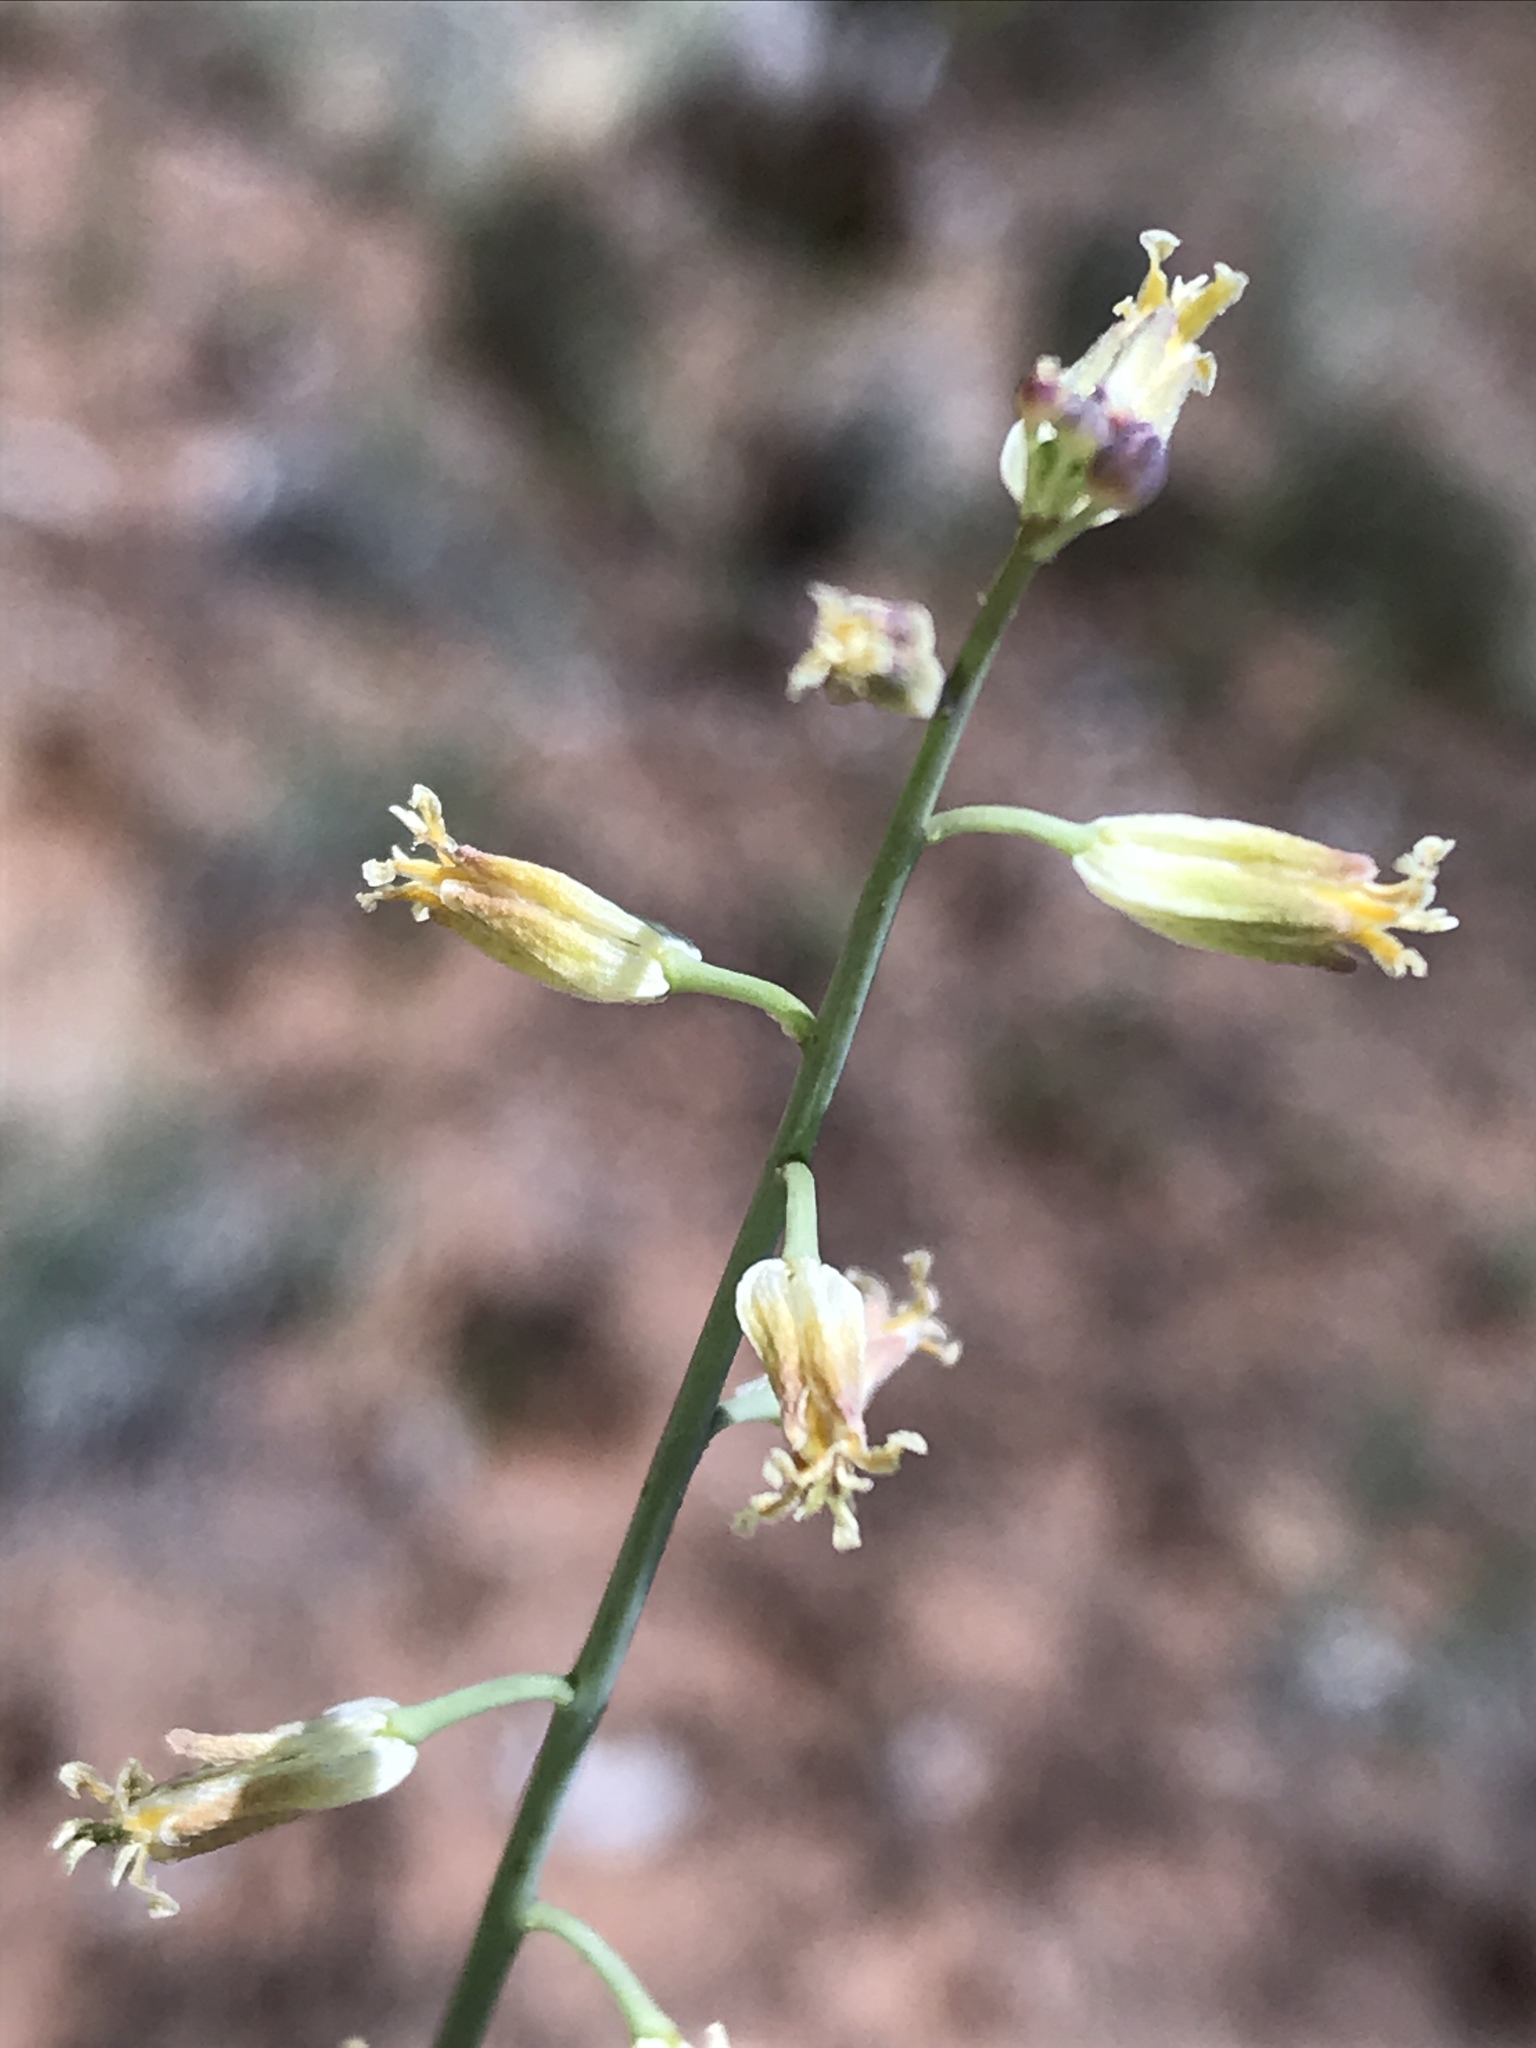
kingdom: Plantae
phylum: Tracheophyta
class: Magnoliopsida
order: Brassicales
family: Brassicaceae
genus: Streptanthus
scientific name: Streptanthus longirostris
